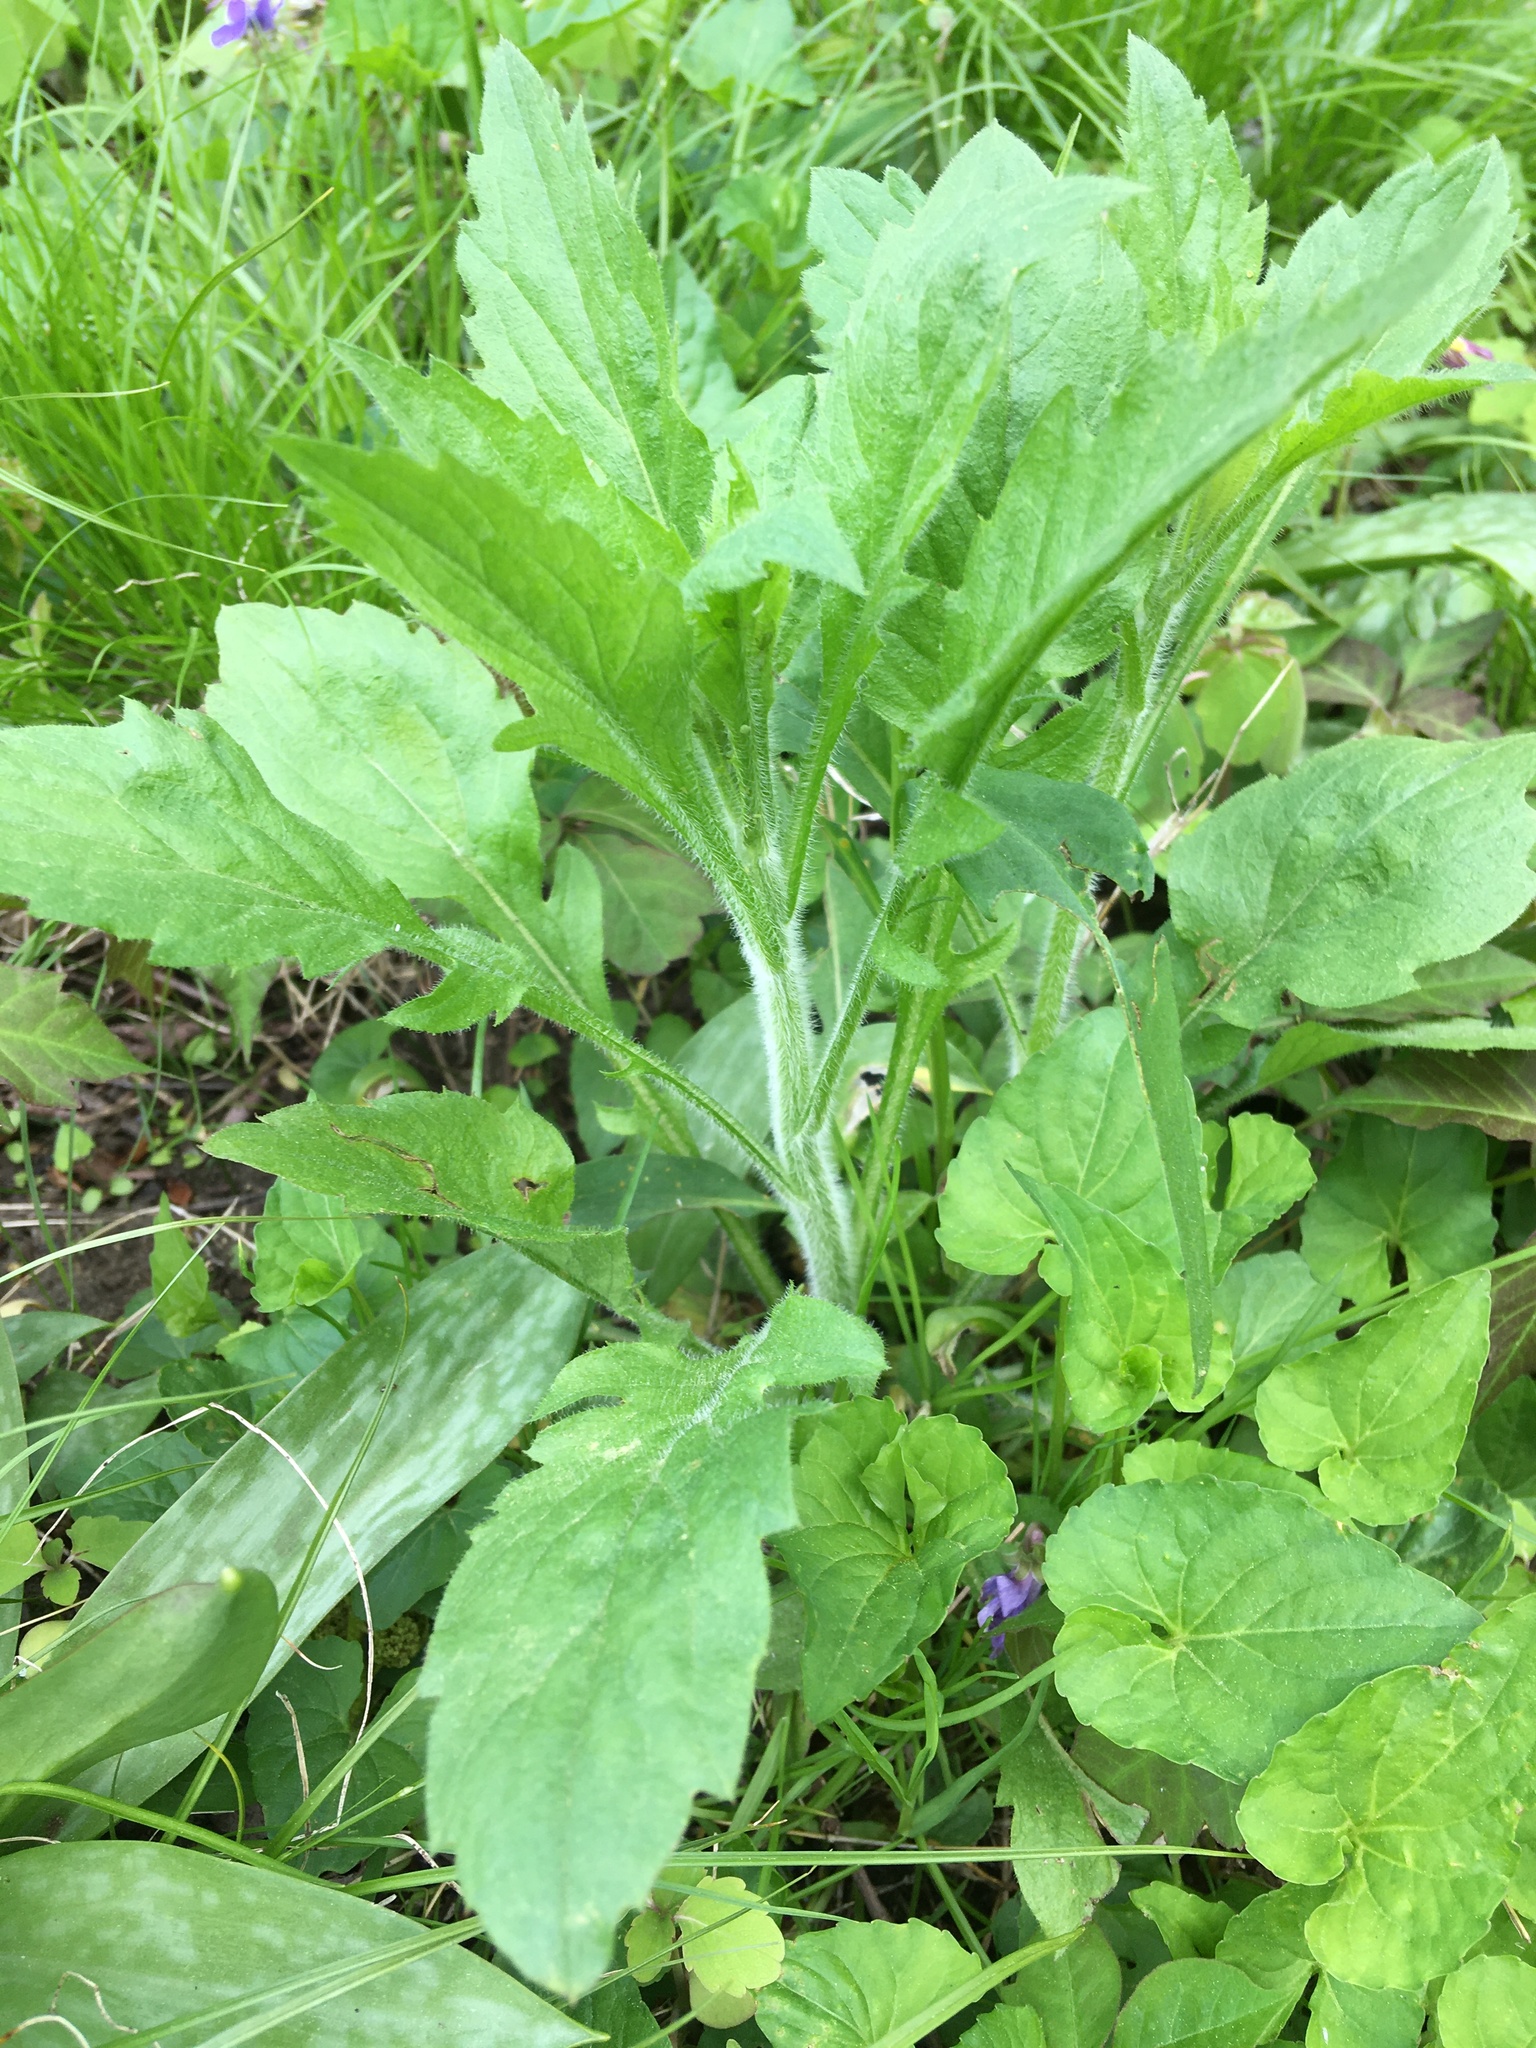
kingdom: Plantae
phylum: Tracheophyta
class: Magnoliopsida
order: Asterales
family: Asteraceae
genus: Erigeron
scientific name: Erigeron annuus
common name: Tall fleabane
